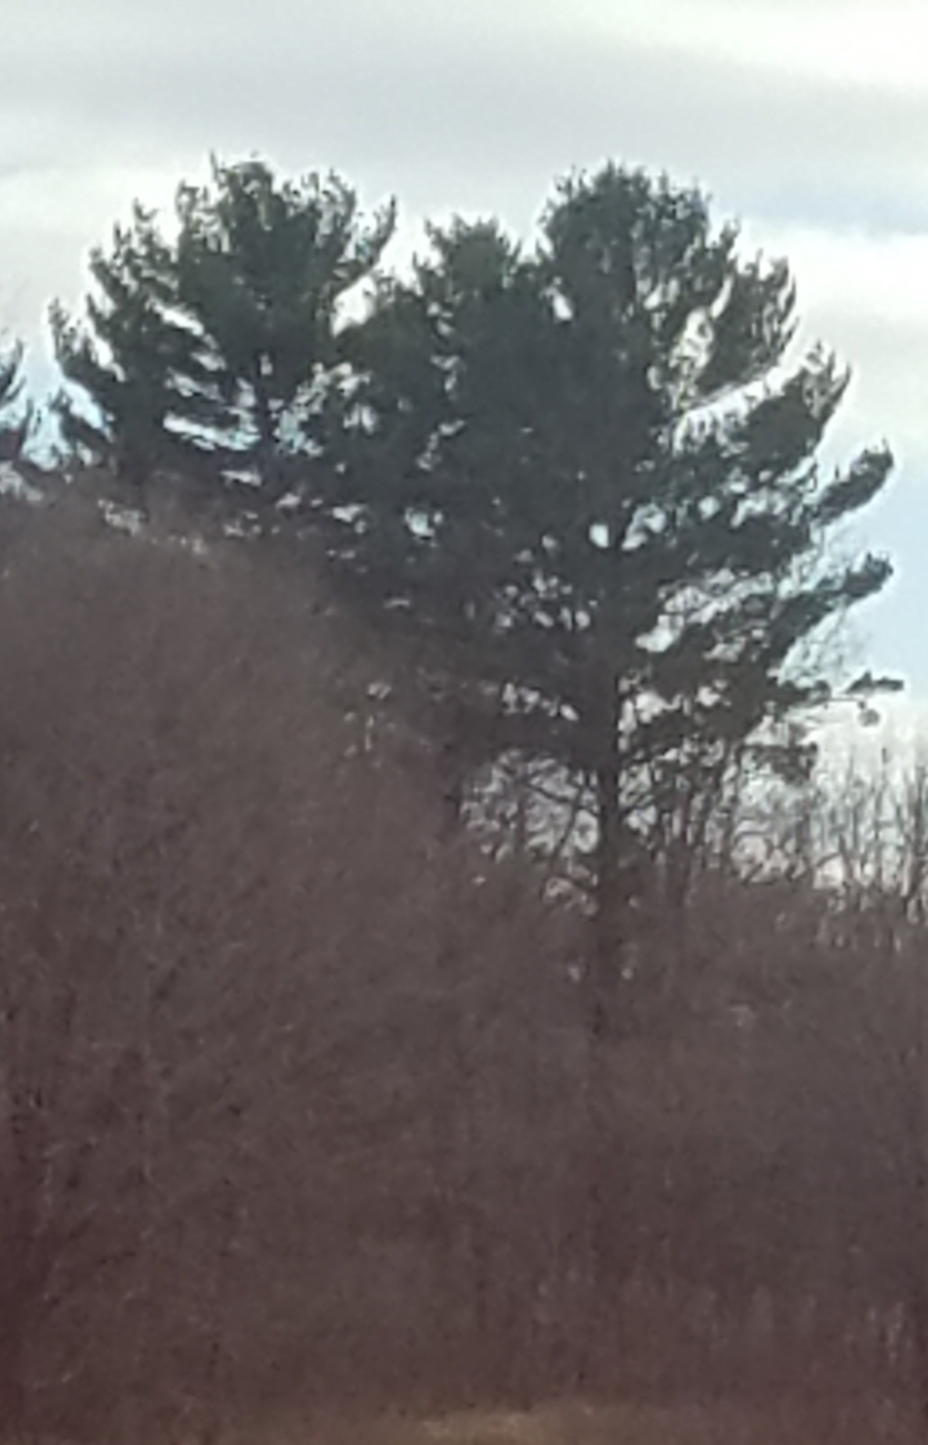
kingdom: Plantae
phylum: Tracheophyta
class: Pinopsida
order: Pinales
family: Pinaceae
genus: Pinus
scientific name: Pinus strobus
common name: Weymouth pine
